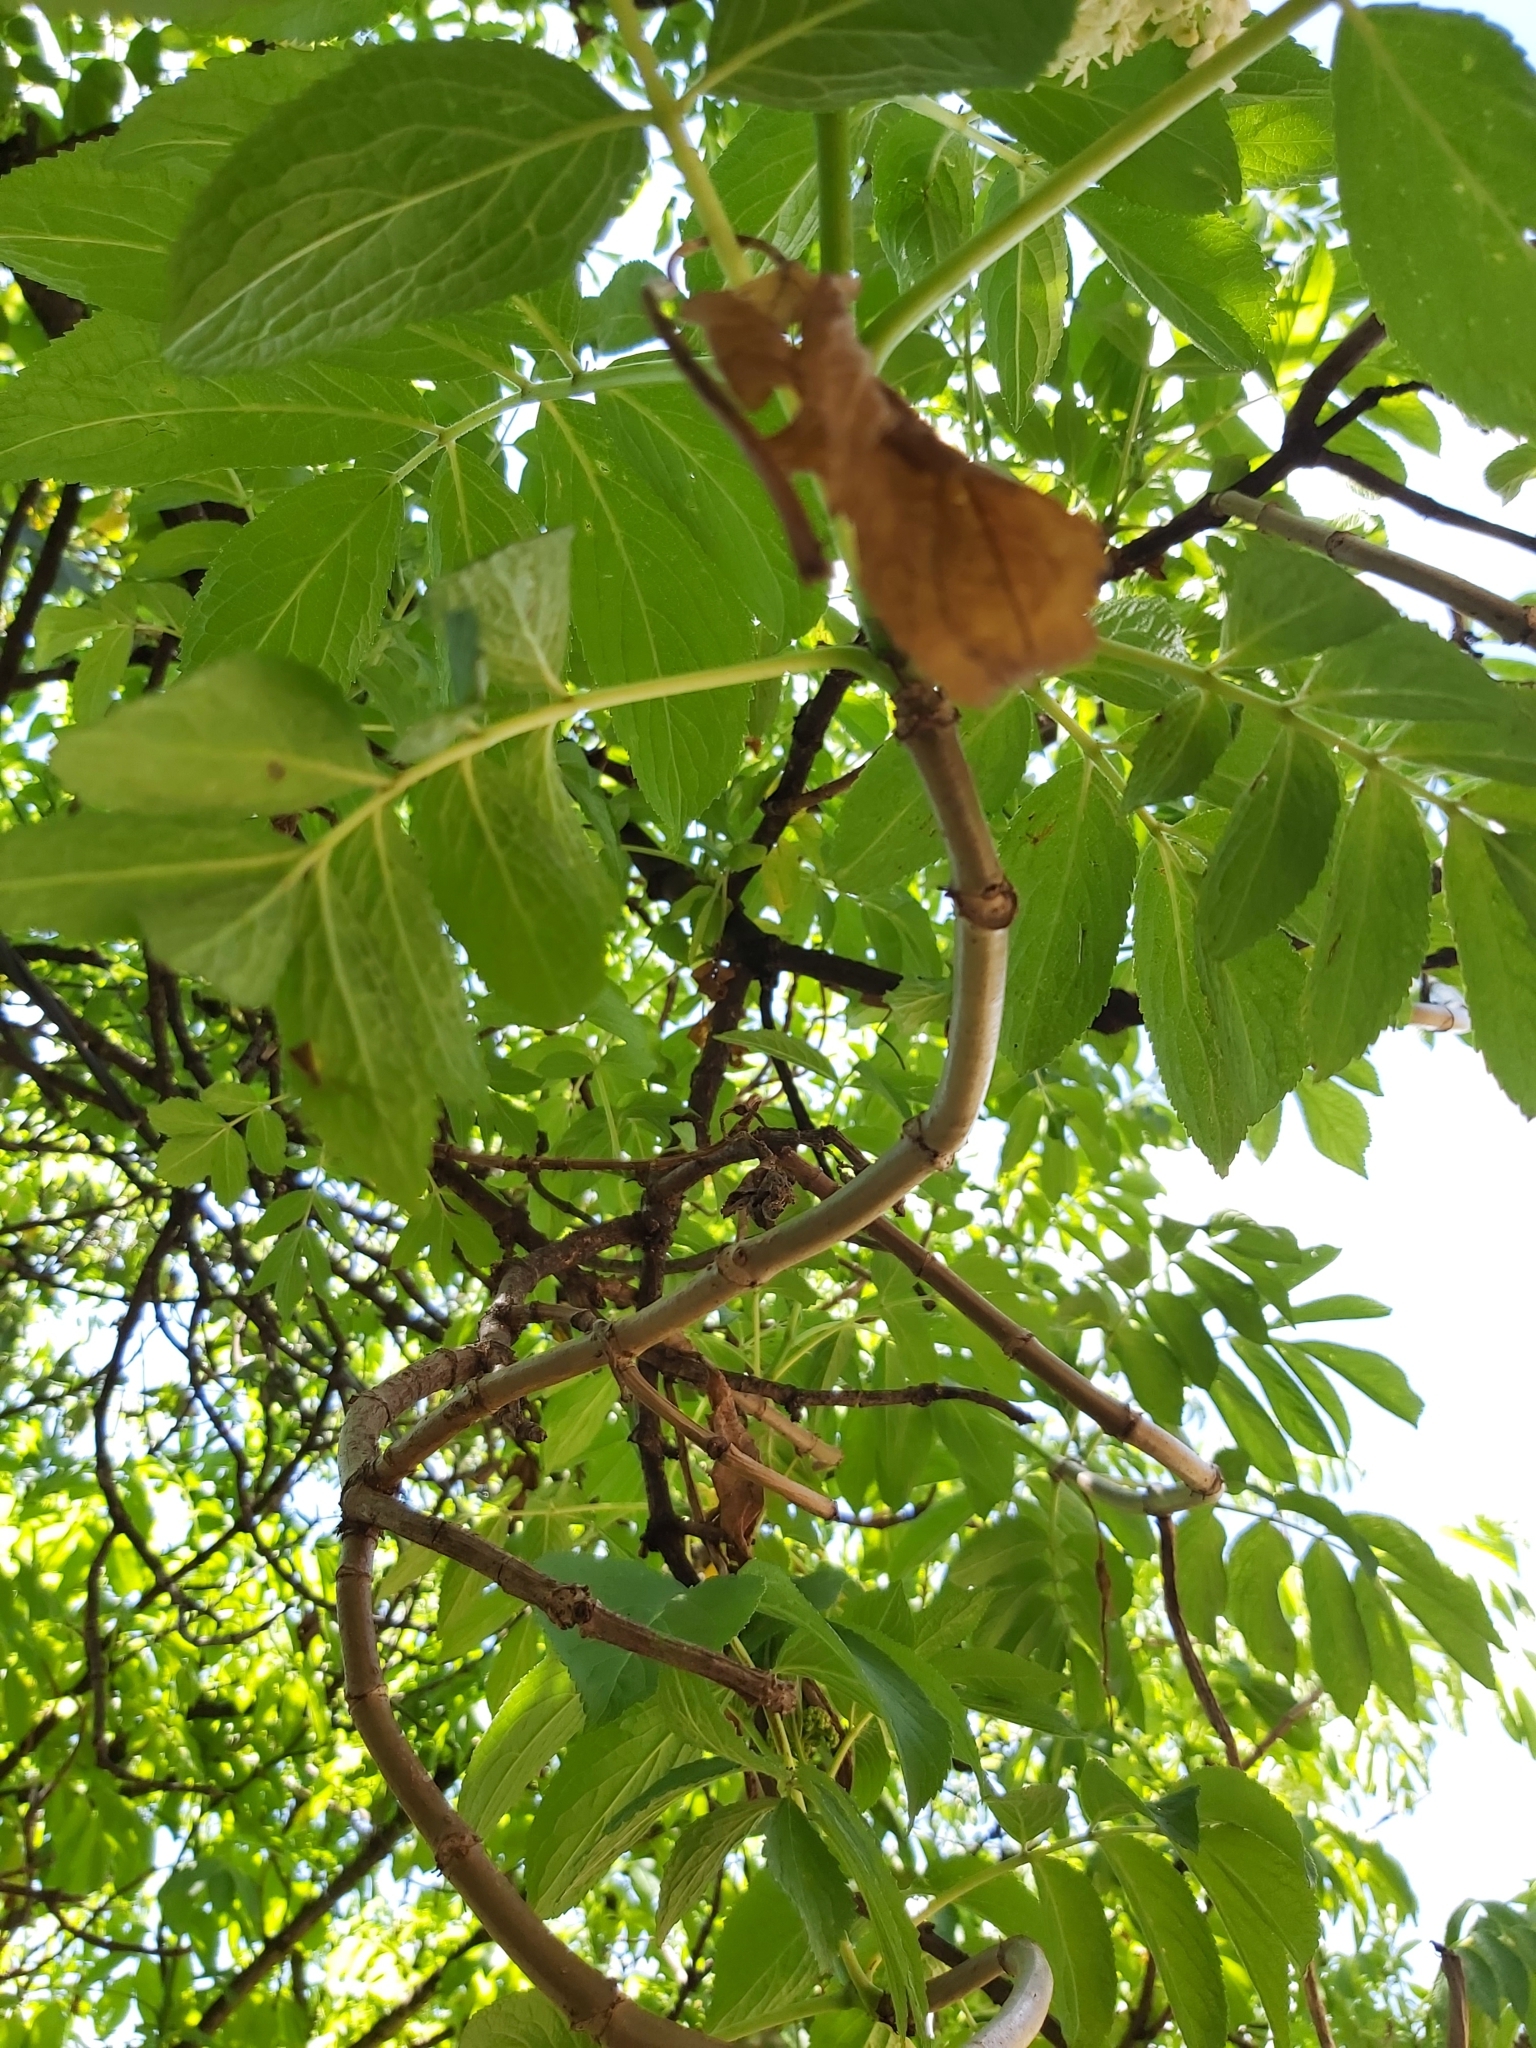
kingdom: Plantae
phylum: Tracheophyta
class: Magnoliopsida
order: Dipsacales
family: Viburnaceae
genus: Sambucus
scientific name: Sambucus peruviana
